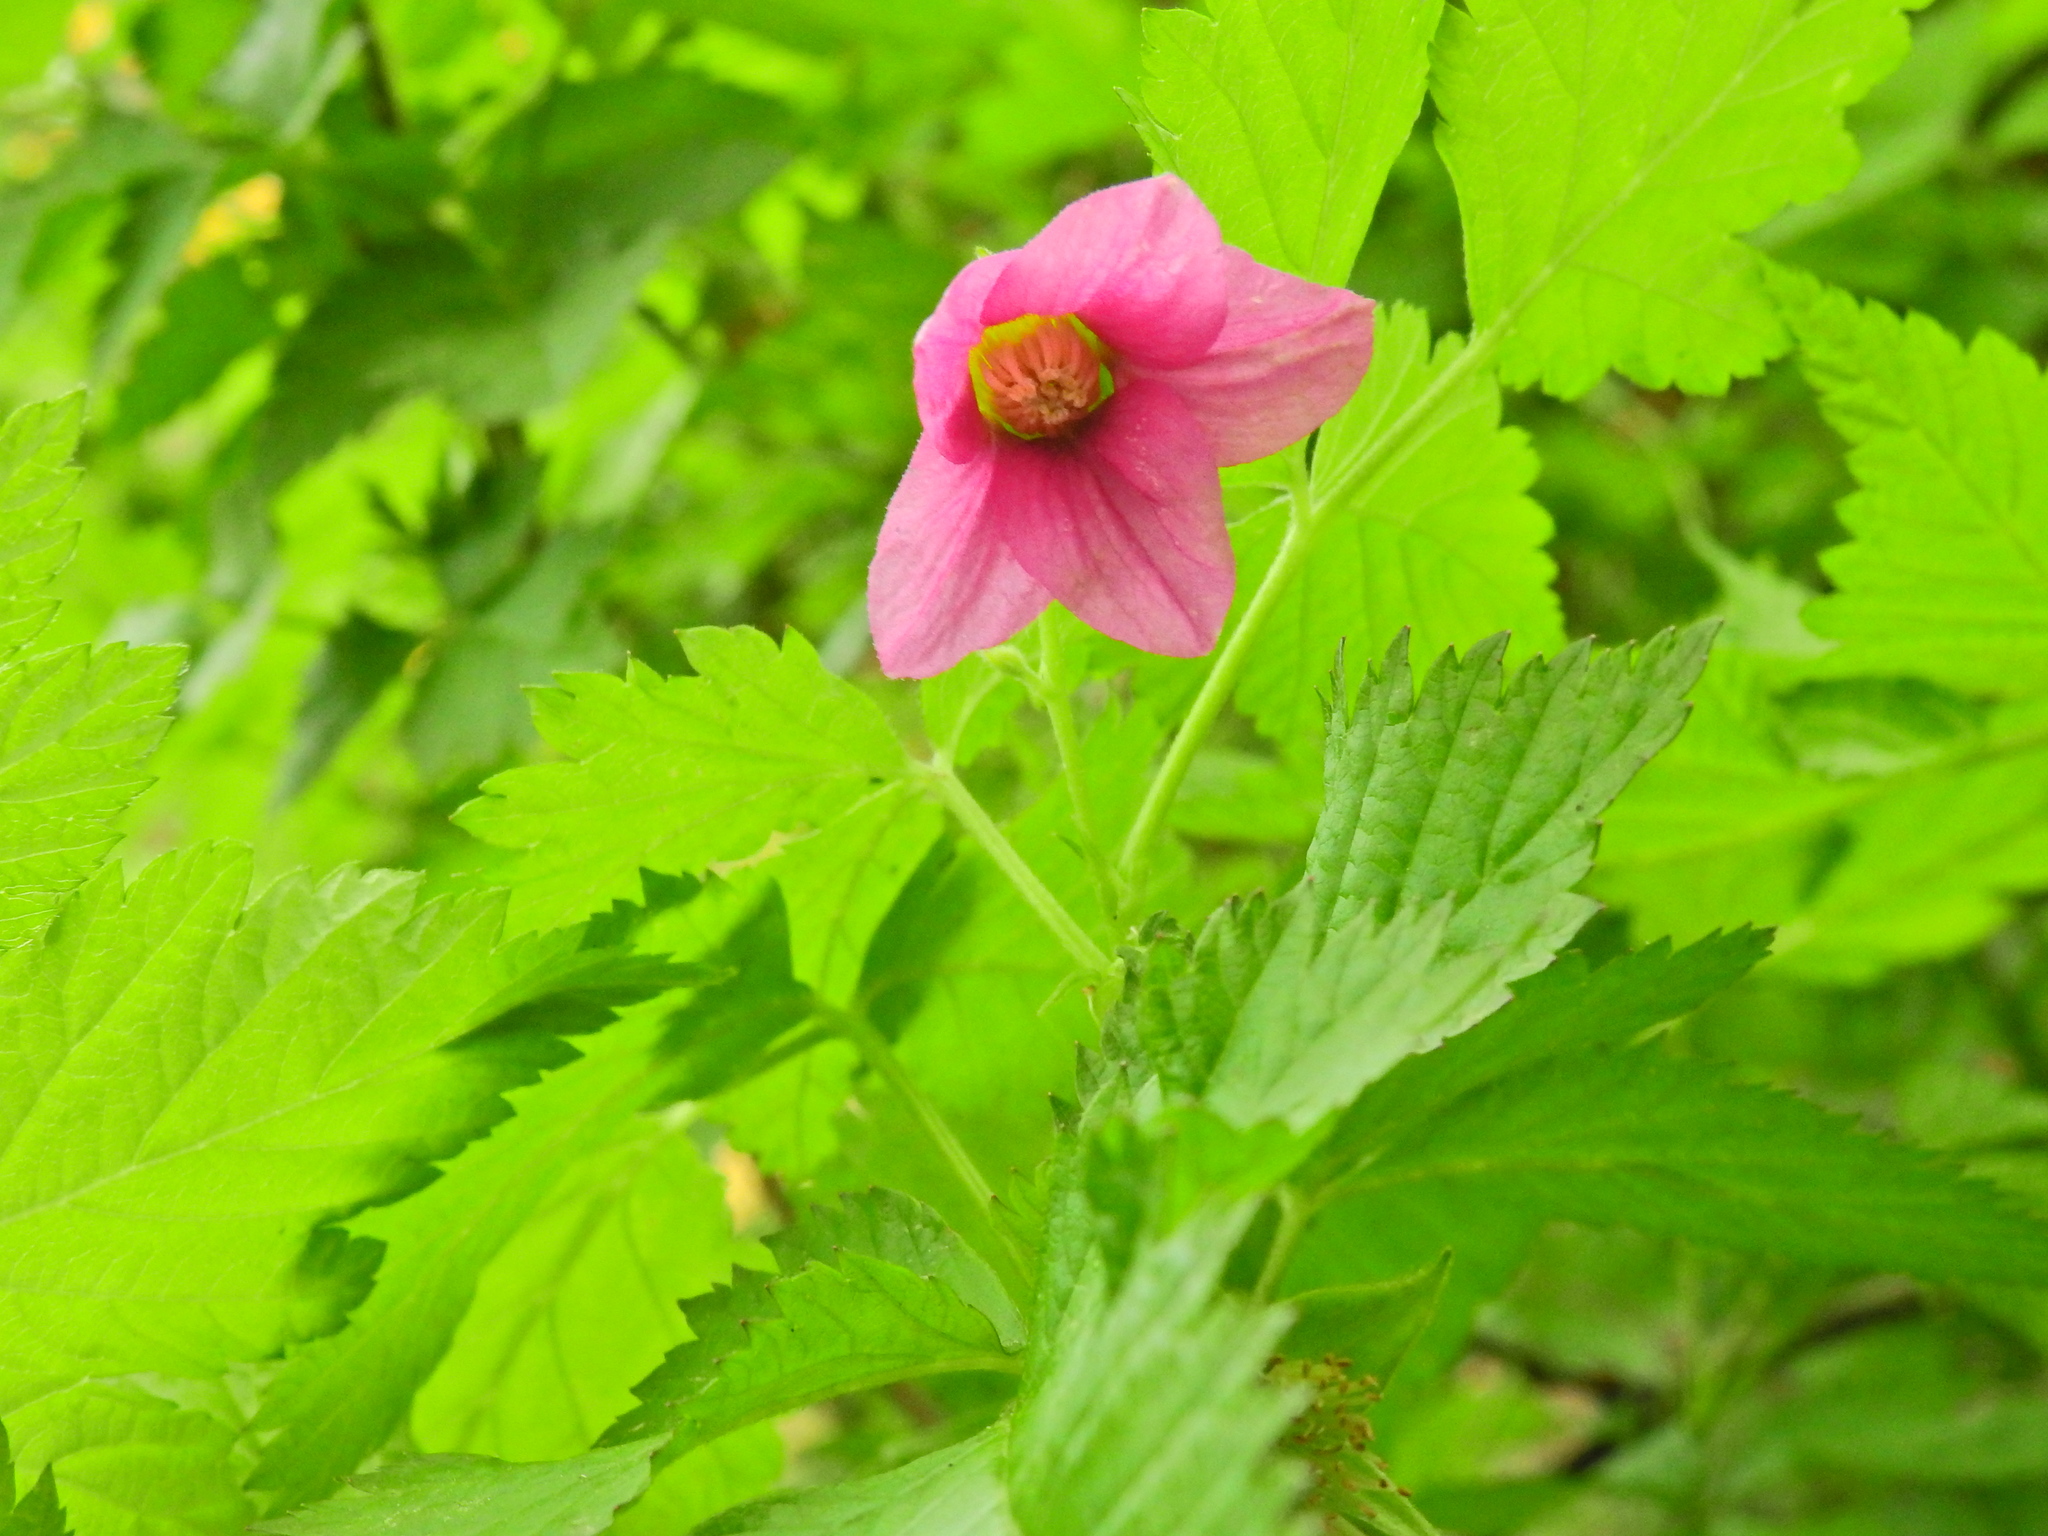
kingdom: Plantae
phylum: Tracheophyta
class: Magnoliopsida
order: Rosales
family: Rosaceae
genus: Rubus
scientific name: Rubus spectabilis
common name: Salmonberry
